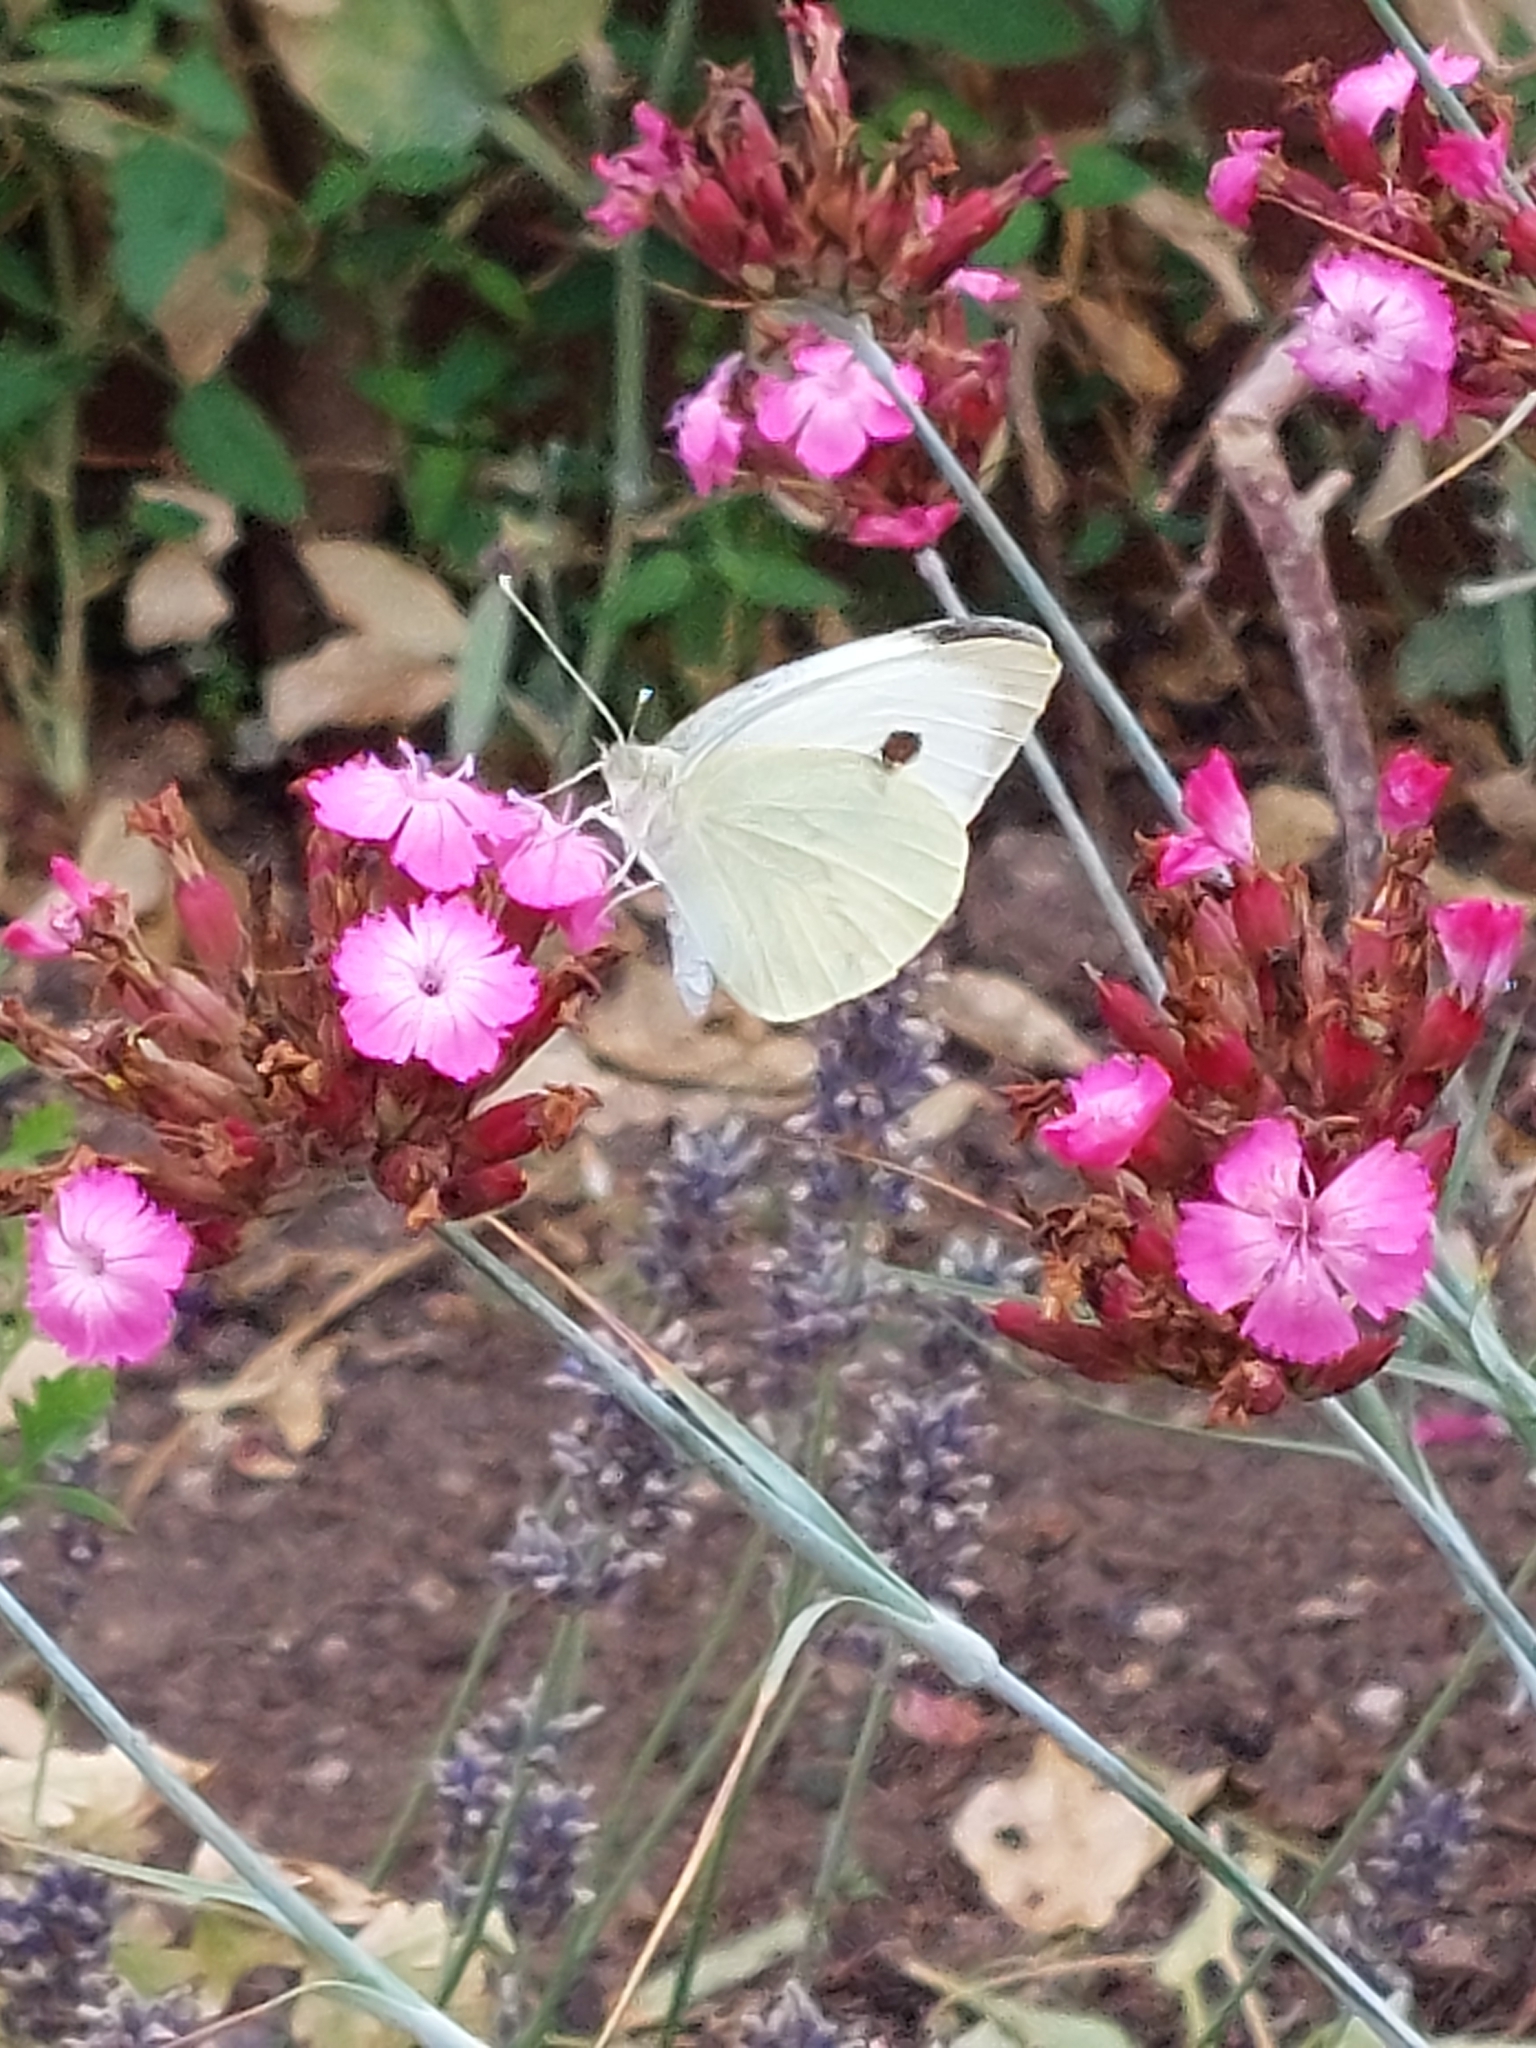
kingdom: Animalia
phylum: Arthropoda
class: Insecta
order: Lepidoptera
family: Pieridae
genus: Pieris
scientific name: Pieris brassicae
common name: Large white
